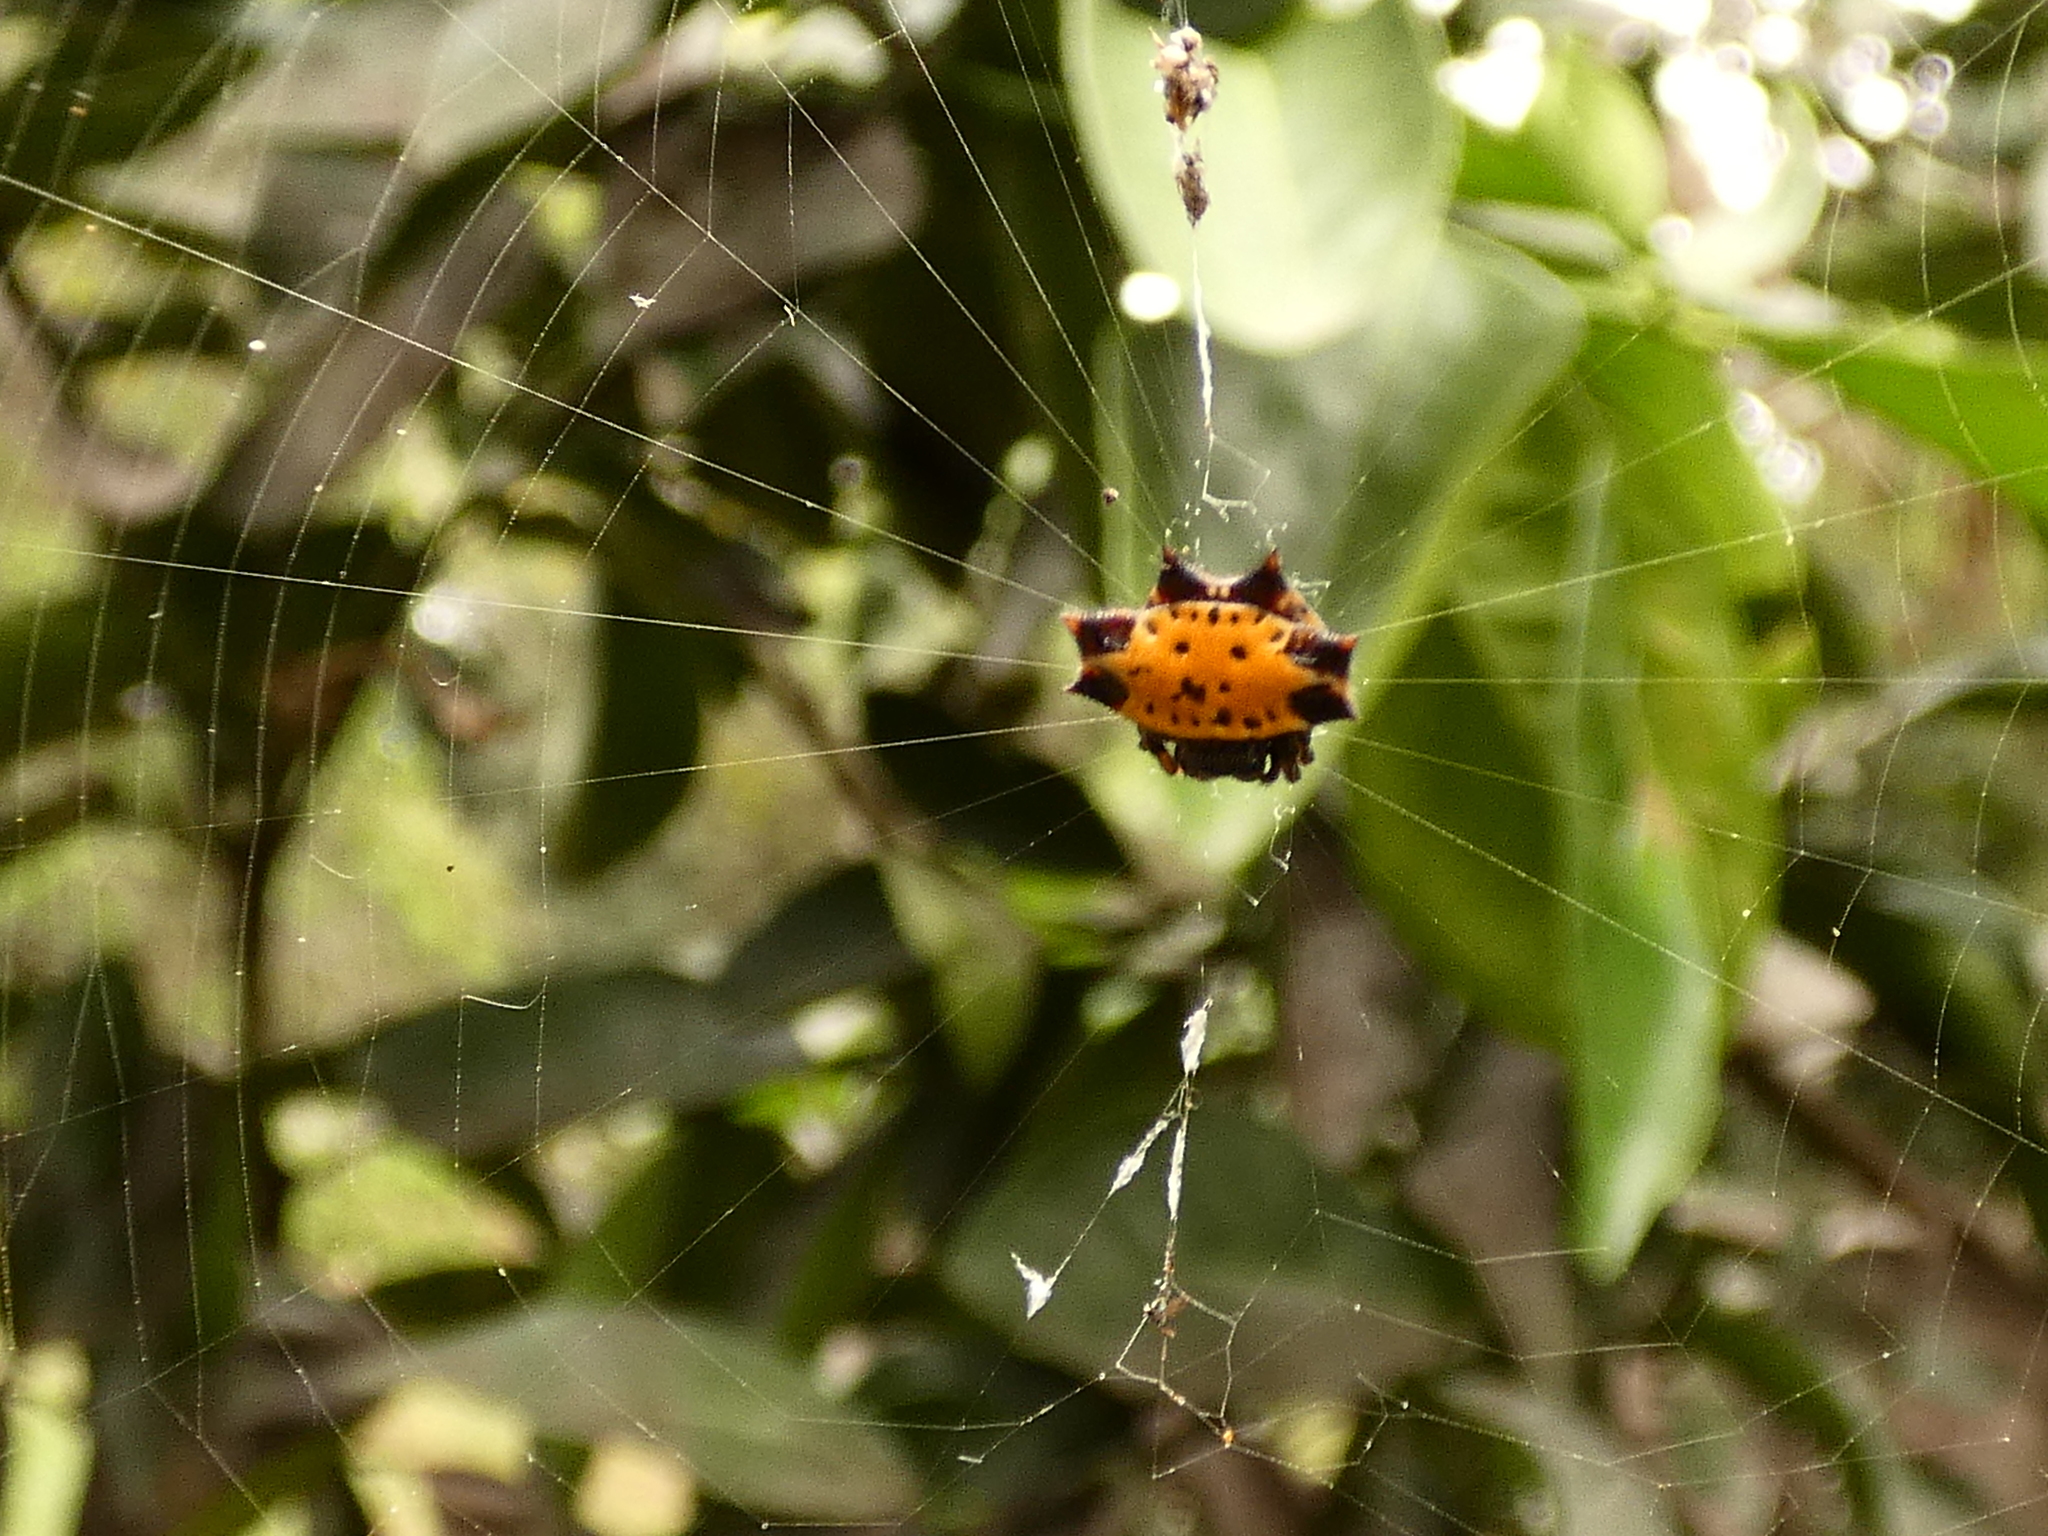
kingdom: Animalia
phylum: Arthropoda
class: Arachnida
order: Araneae
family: Araneidae
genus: Gasteracantha
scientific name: Gasteracantha cancriformis
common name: Orb weavers
